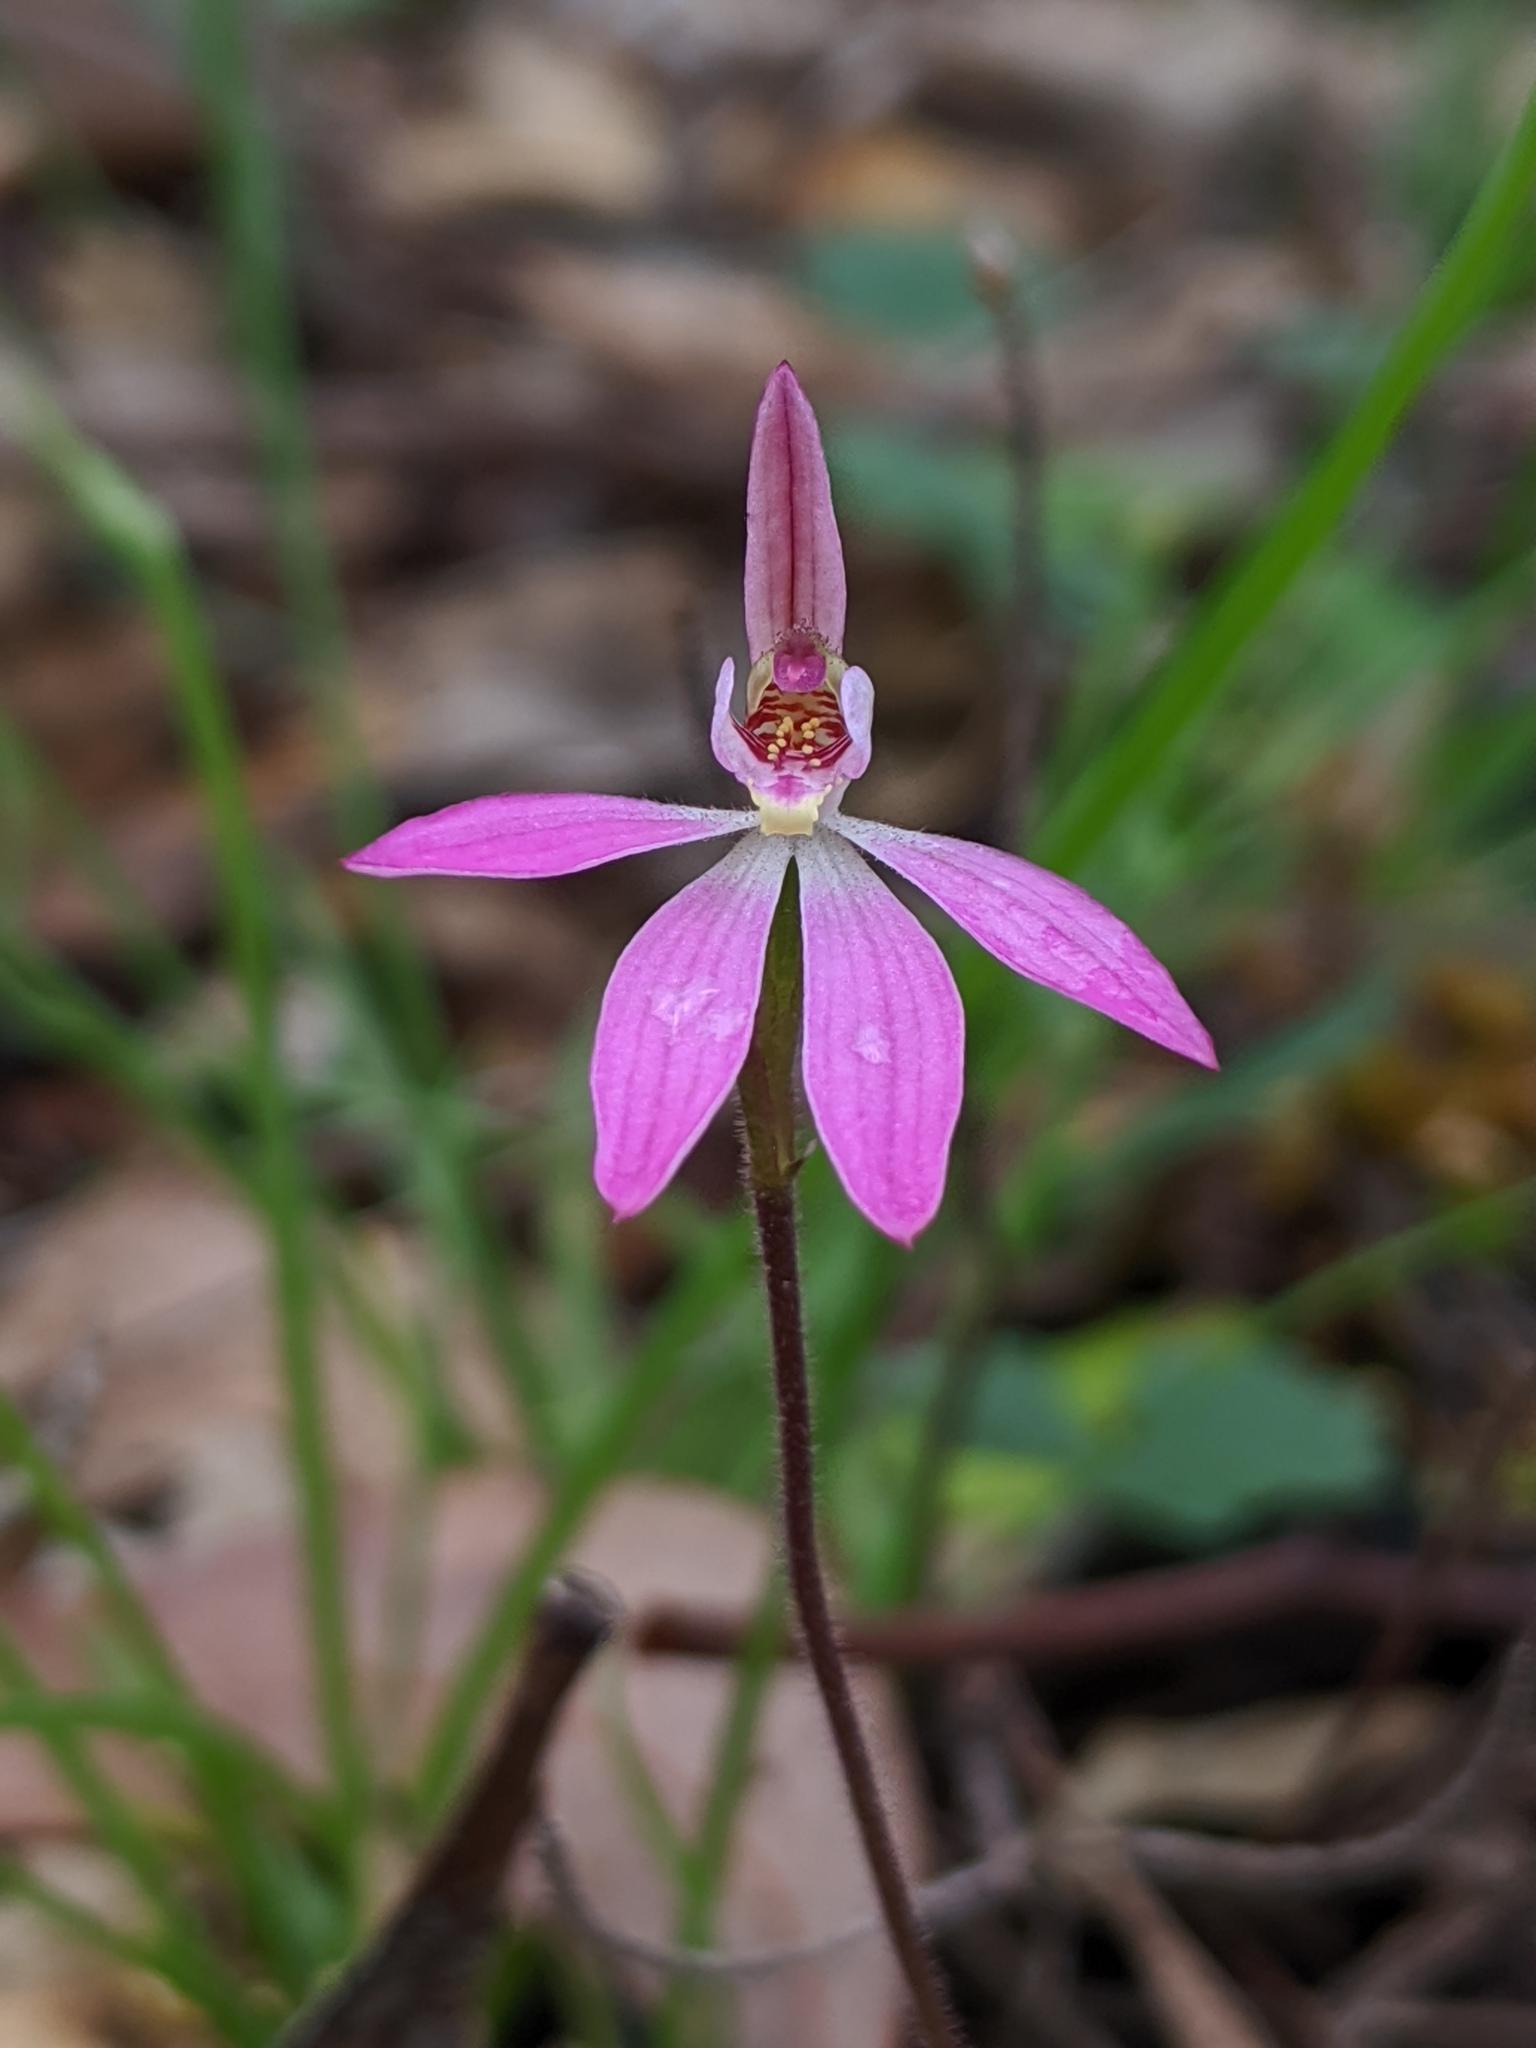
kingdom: Plantae
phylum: Tracheophyta
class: Liliopsida
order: Asparagales
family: Orchidaceae
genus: Caladenia
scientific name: Caladenia carnea
